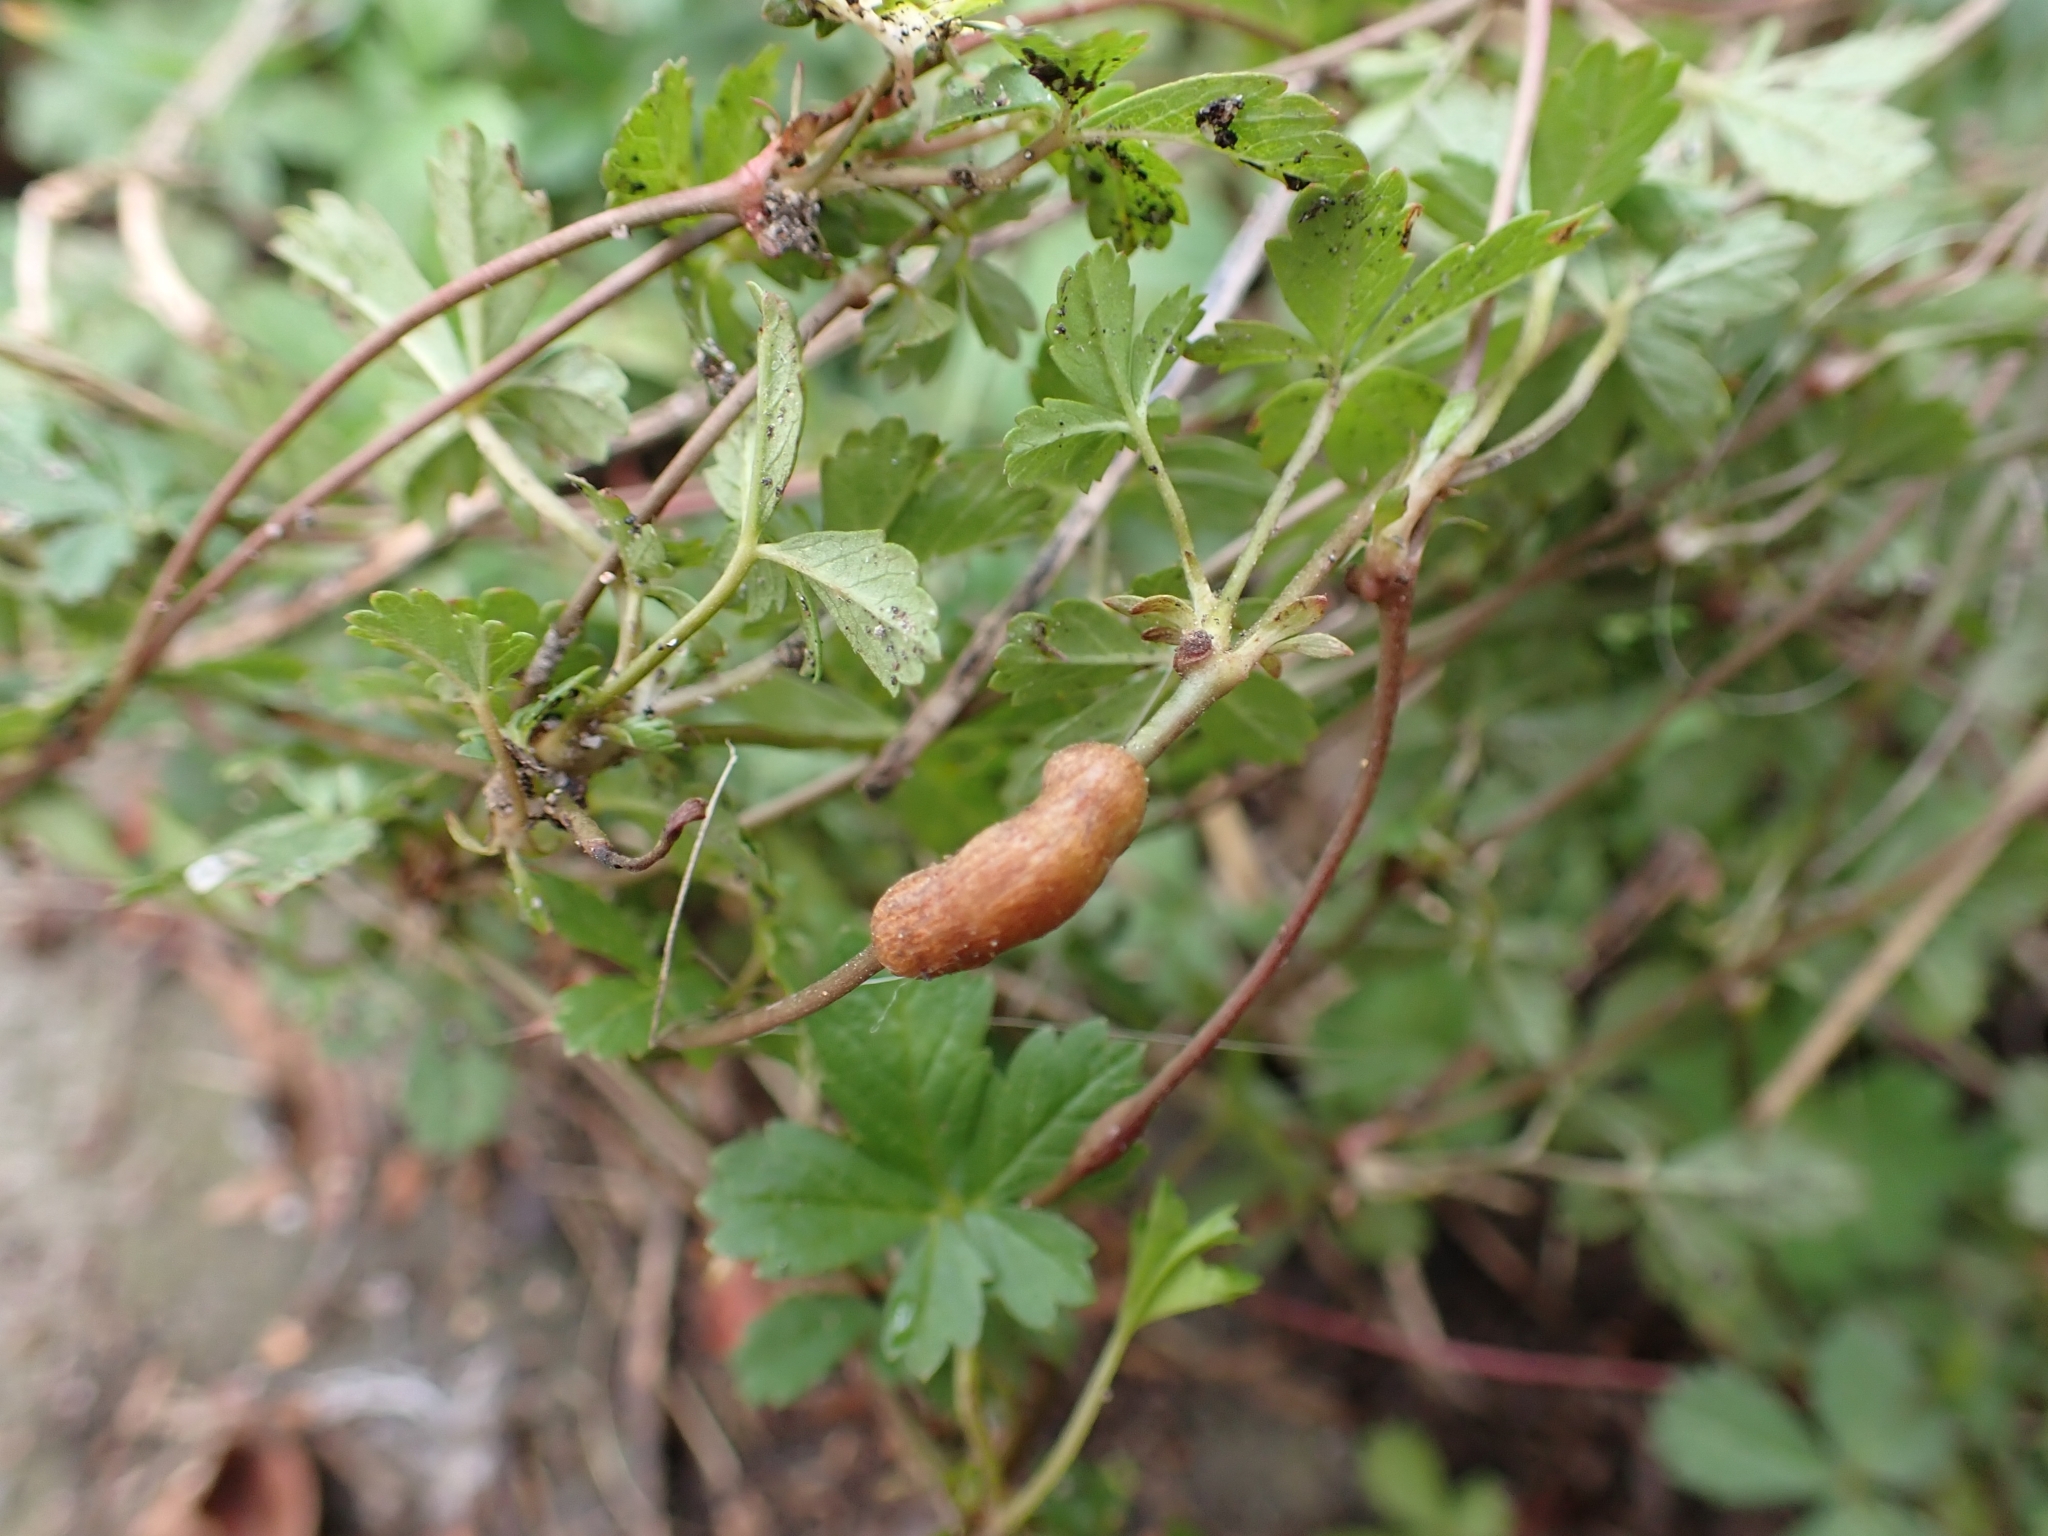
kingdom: Animalia
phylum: Arthropoda
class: Insecta
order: Hymenoptera
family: Cynipidae
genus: Xestophanes
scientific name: Xestophanes potentillae
